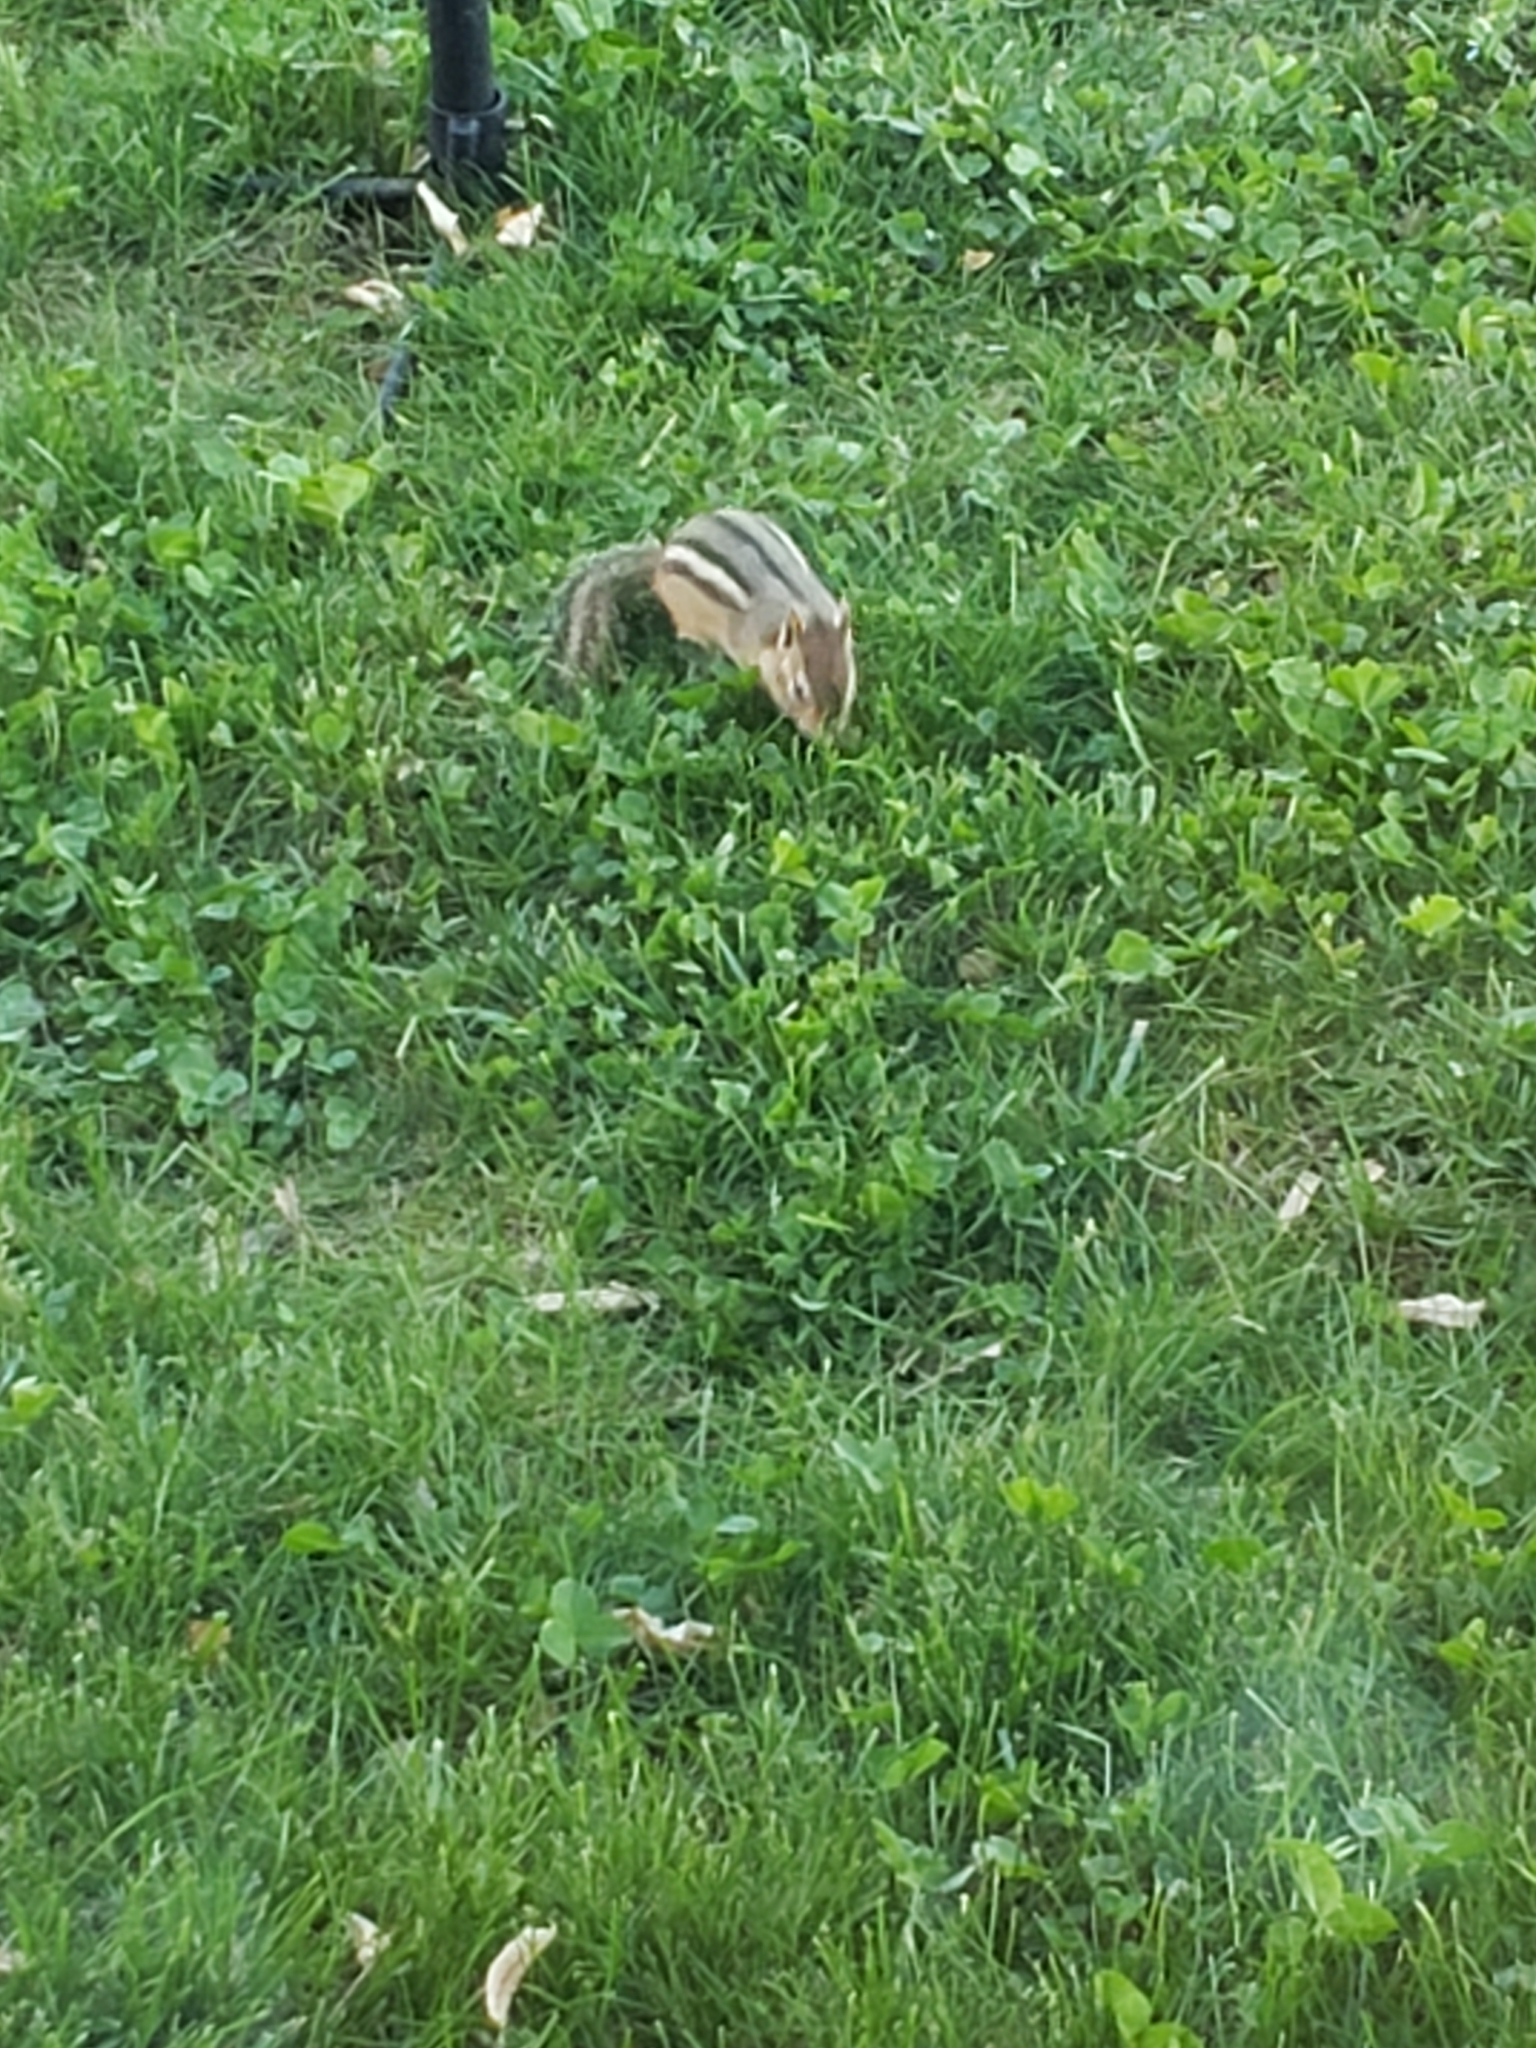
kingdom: Animalia
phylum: Chordata
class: Mammalia
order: Rodentia
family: Sciuridae
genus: Tamias
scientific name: Tamias striatus
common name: Eastern chipmunk
